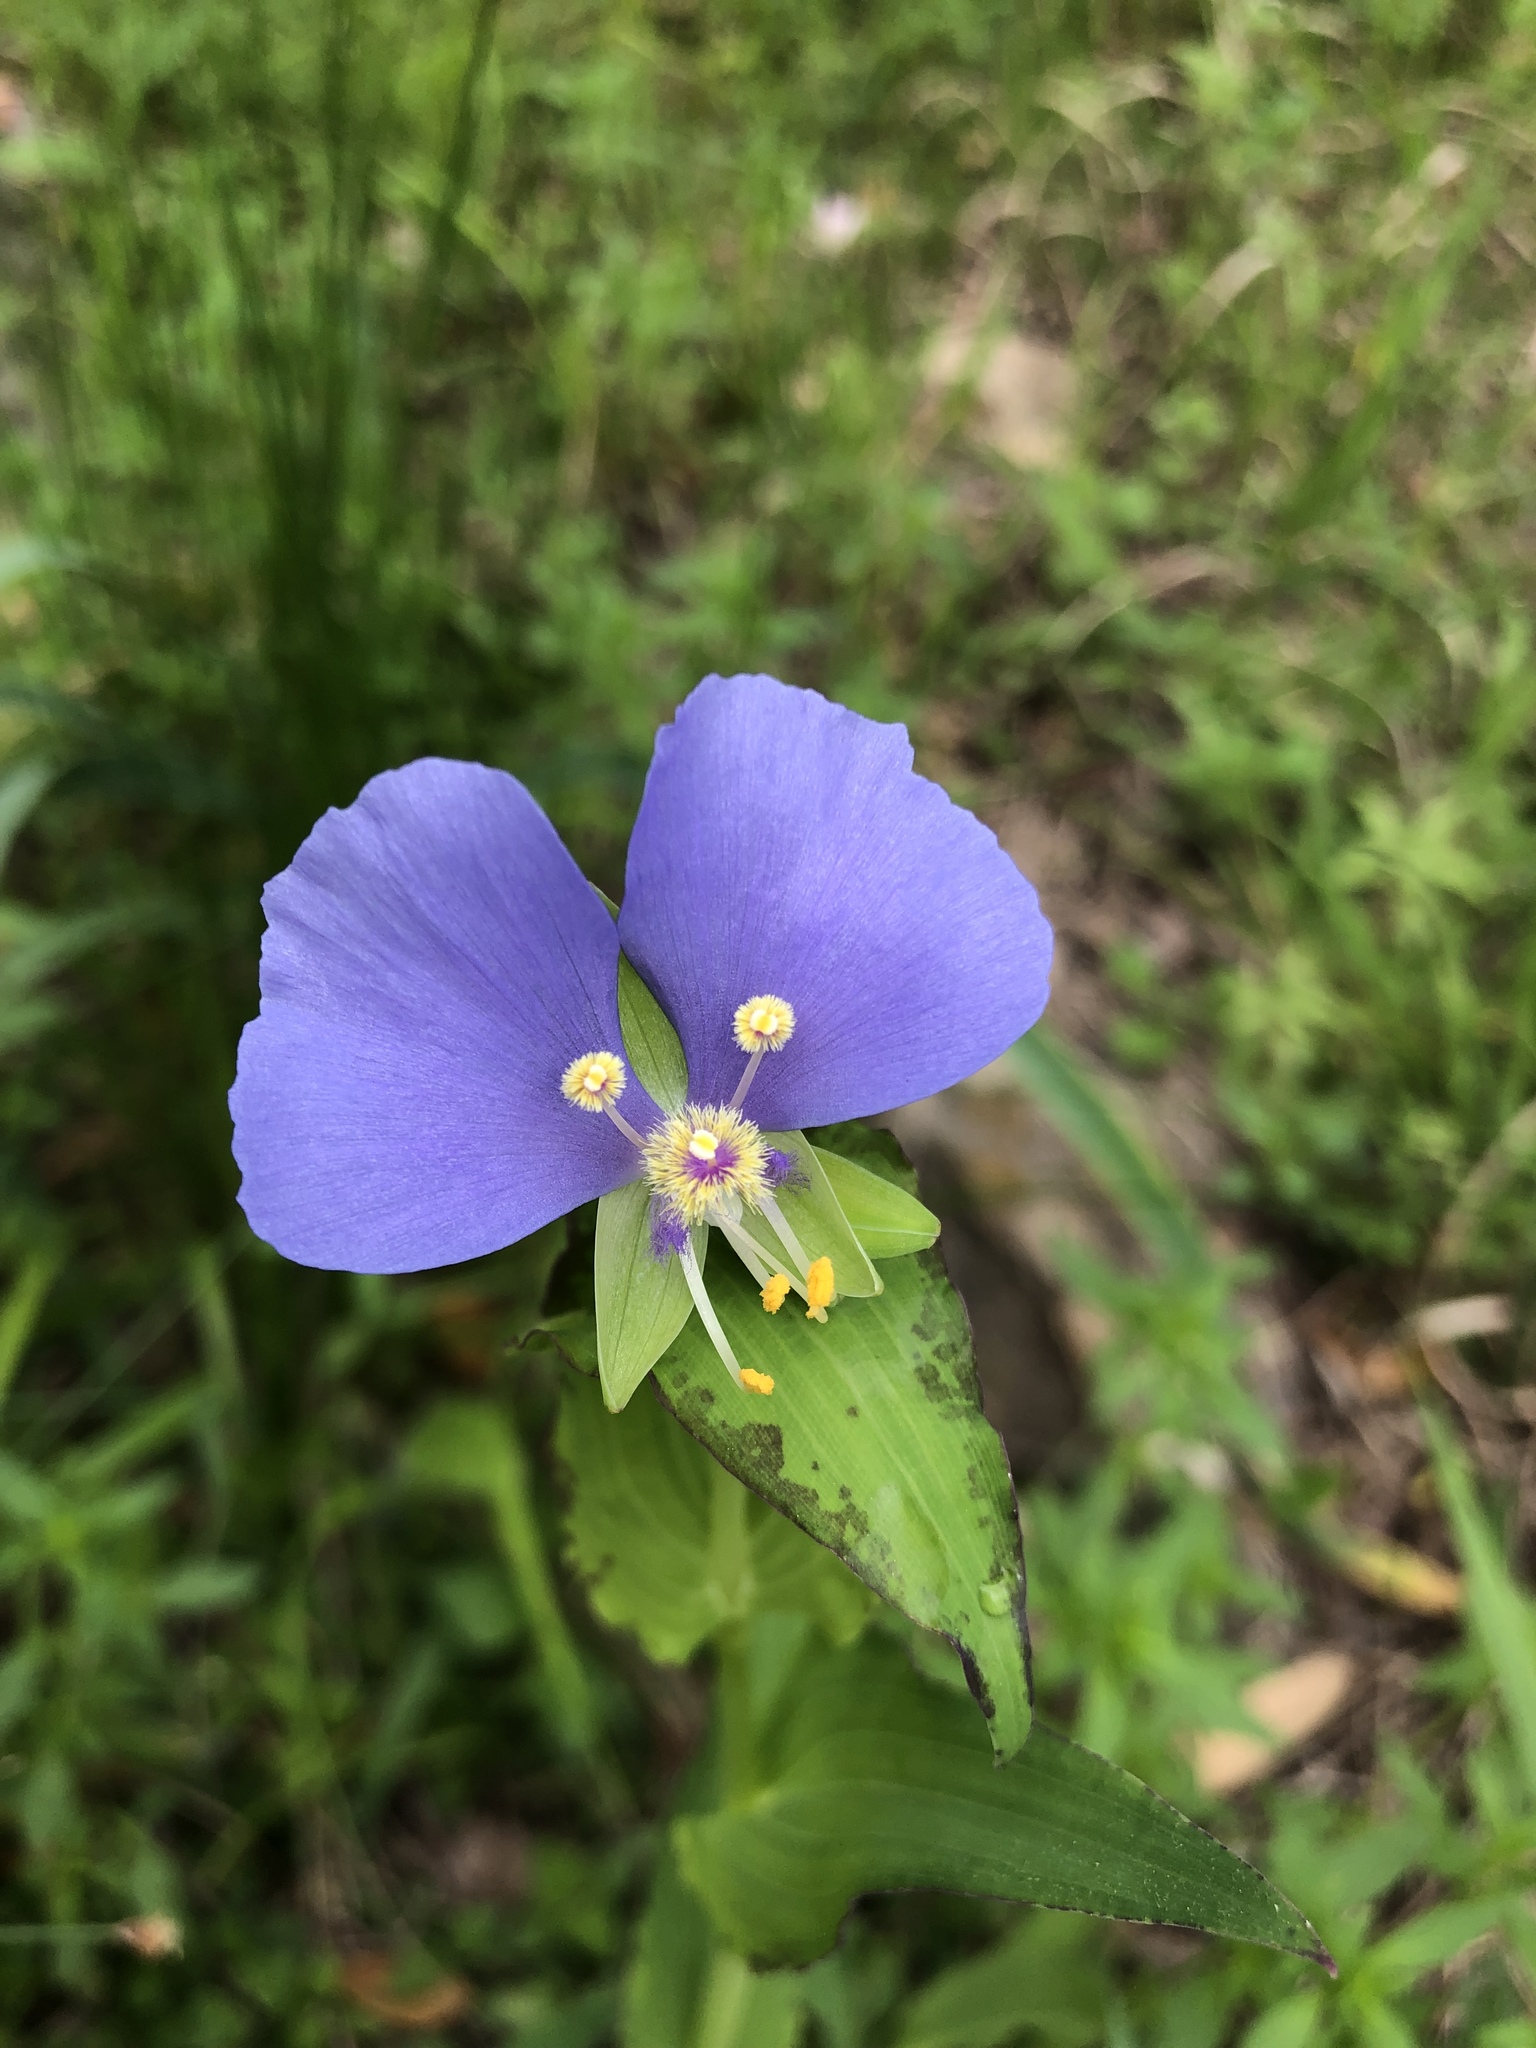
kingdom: Plantae
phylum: Tracheophyta
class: Liliopsida
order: Commelinales
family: Commelinaceae
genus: Tinantia
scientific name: Tinantia anomala
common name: False dayflower
